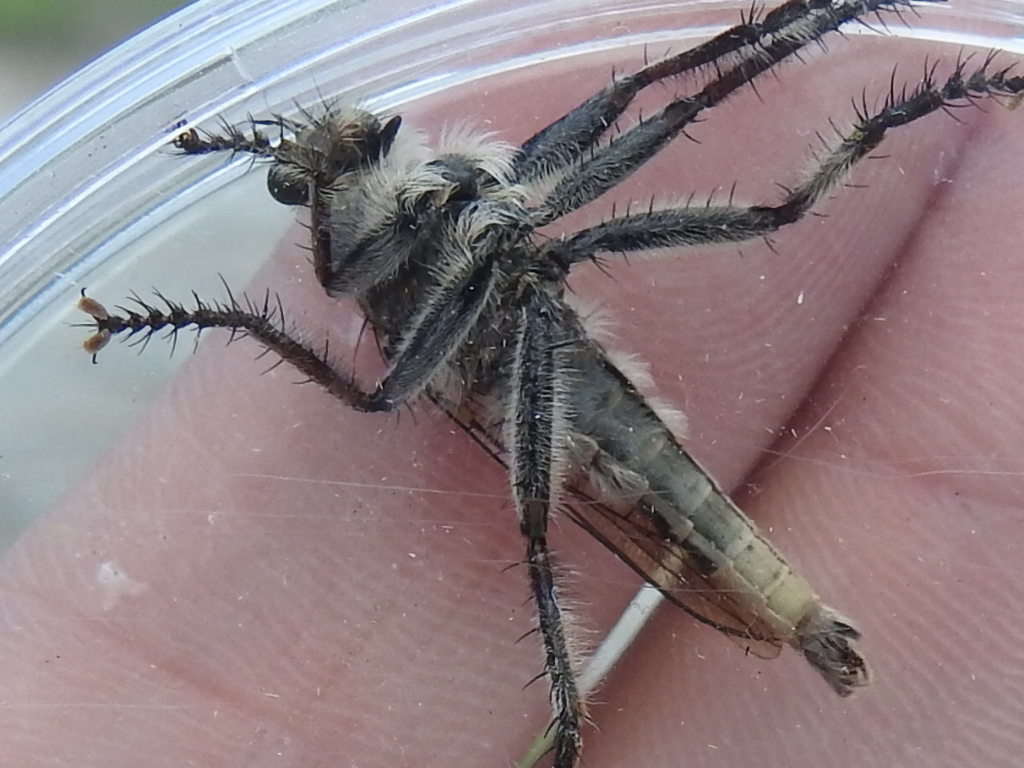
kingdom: Animalia
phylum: Arthropoda
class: Insecta
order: Diptera
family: Asilidae
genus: Triorla
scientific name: Triorla interrupta
